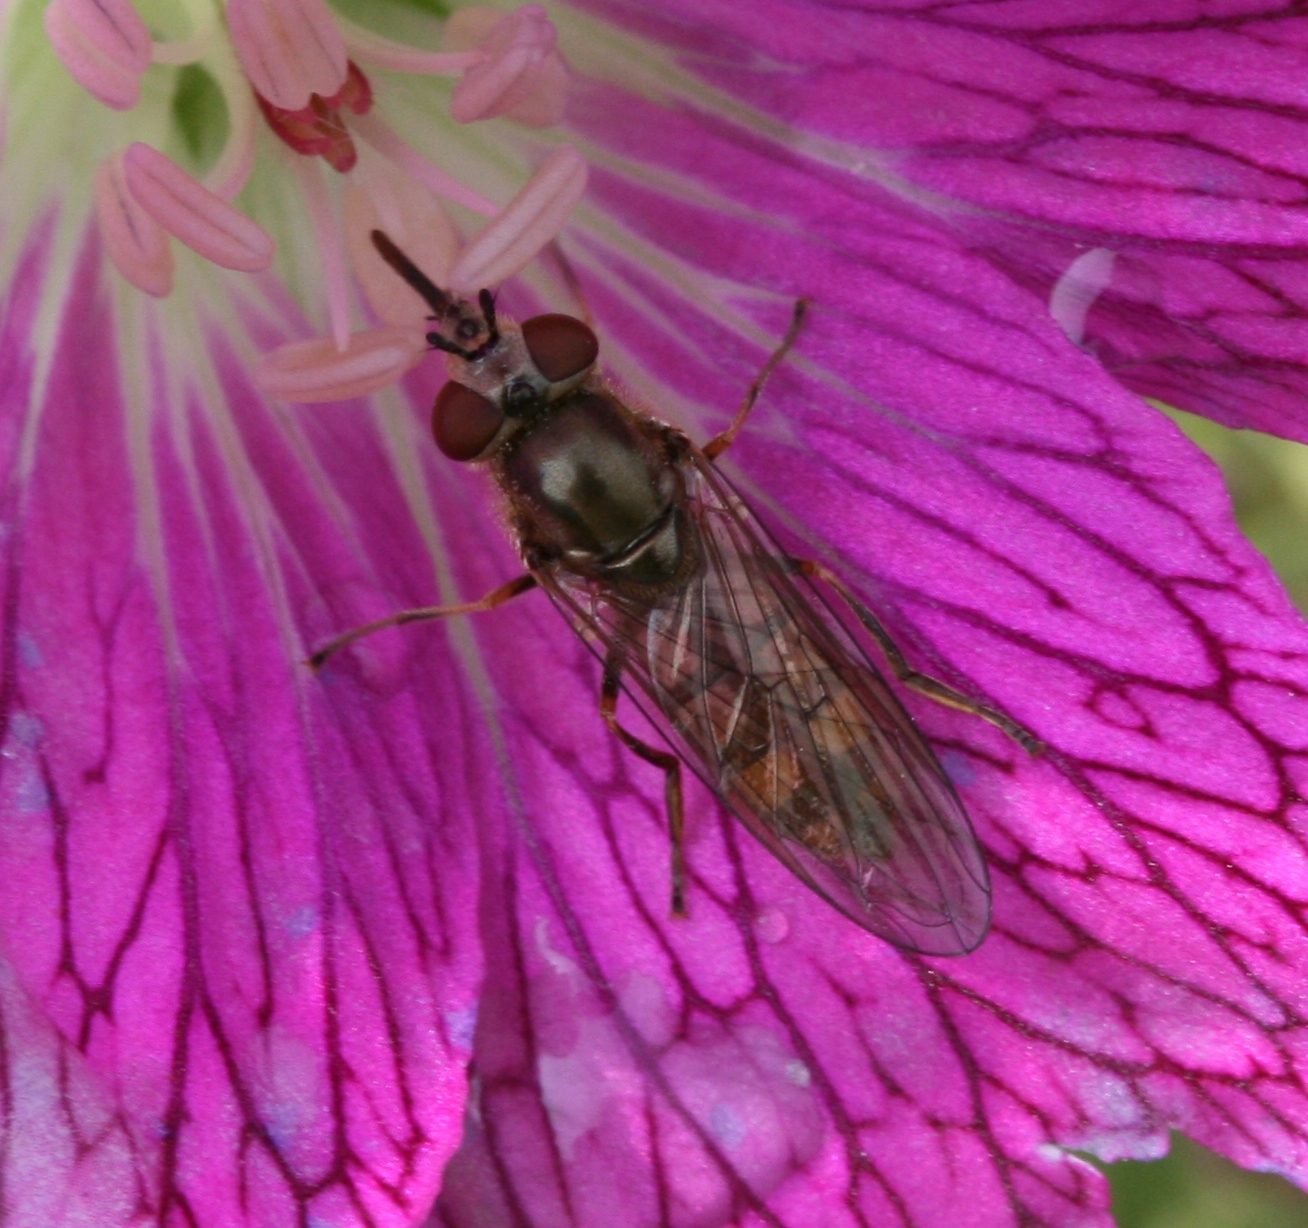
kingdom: Animalia
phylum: Arthropoda
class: Insecta
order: Diptera
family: Syrphidae
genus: Platycheirus
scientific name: Platycheirus manicatus
